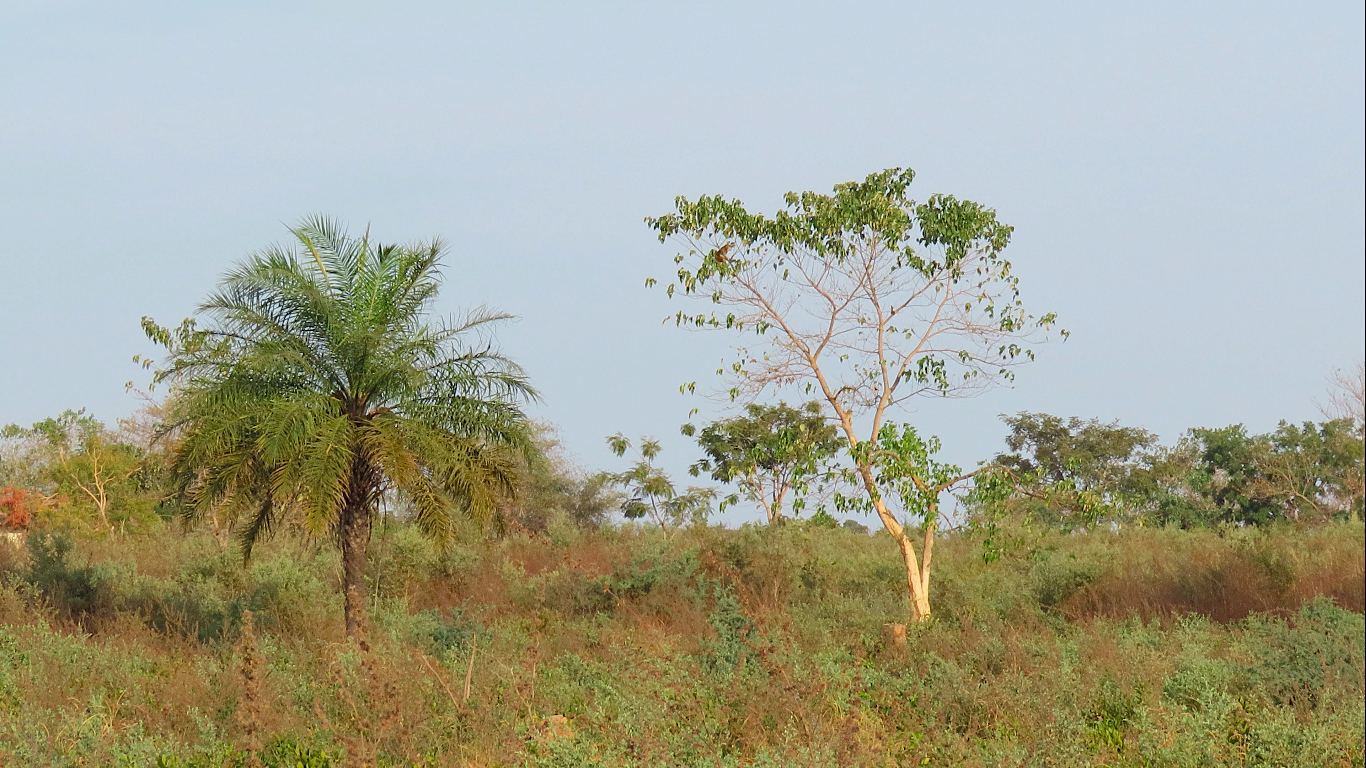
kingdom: Animalia
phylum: Chordata
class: Mammalia
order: Primates
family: Cercopithecidae
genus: Erythrocebus
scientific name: Erythrocebus patas
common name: Patas monkey
